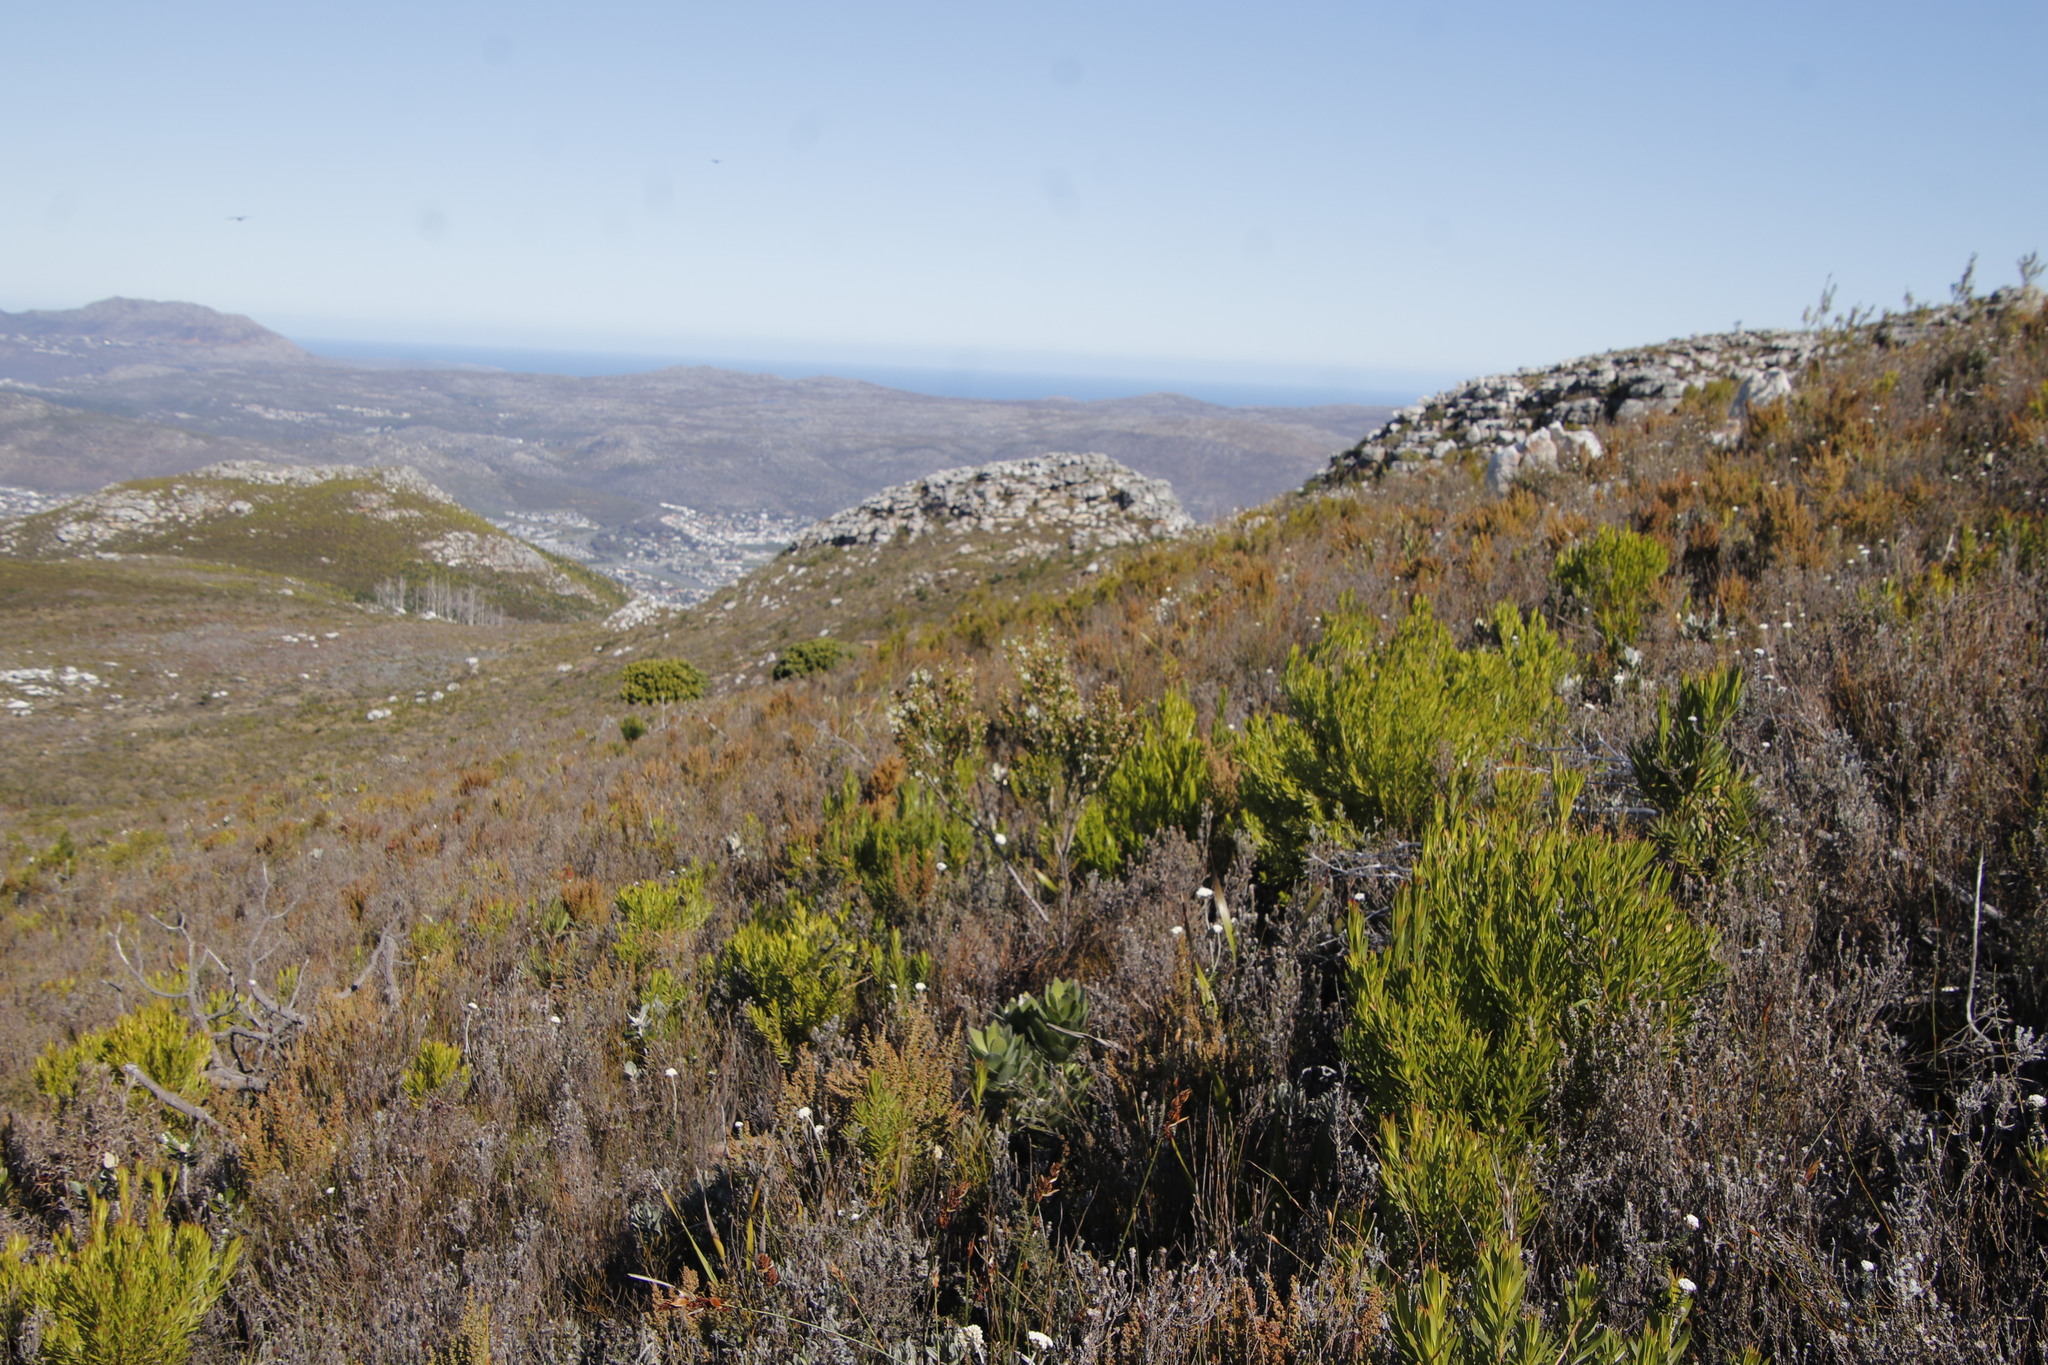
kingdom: Plantae
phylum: Tracheophyta
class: Magnoliopsida
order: Ericales
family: Ericaceae
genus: Erica
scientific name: Erica physodes
